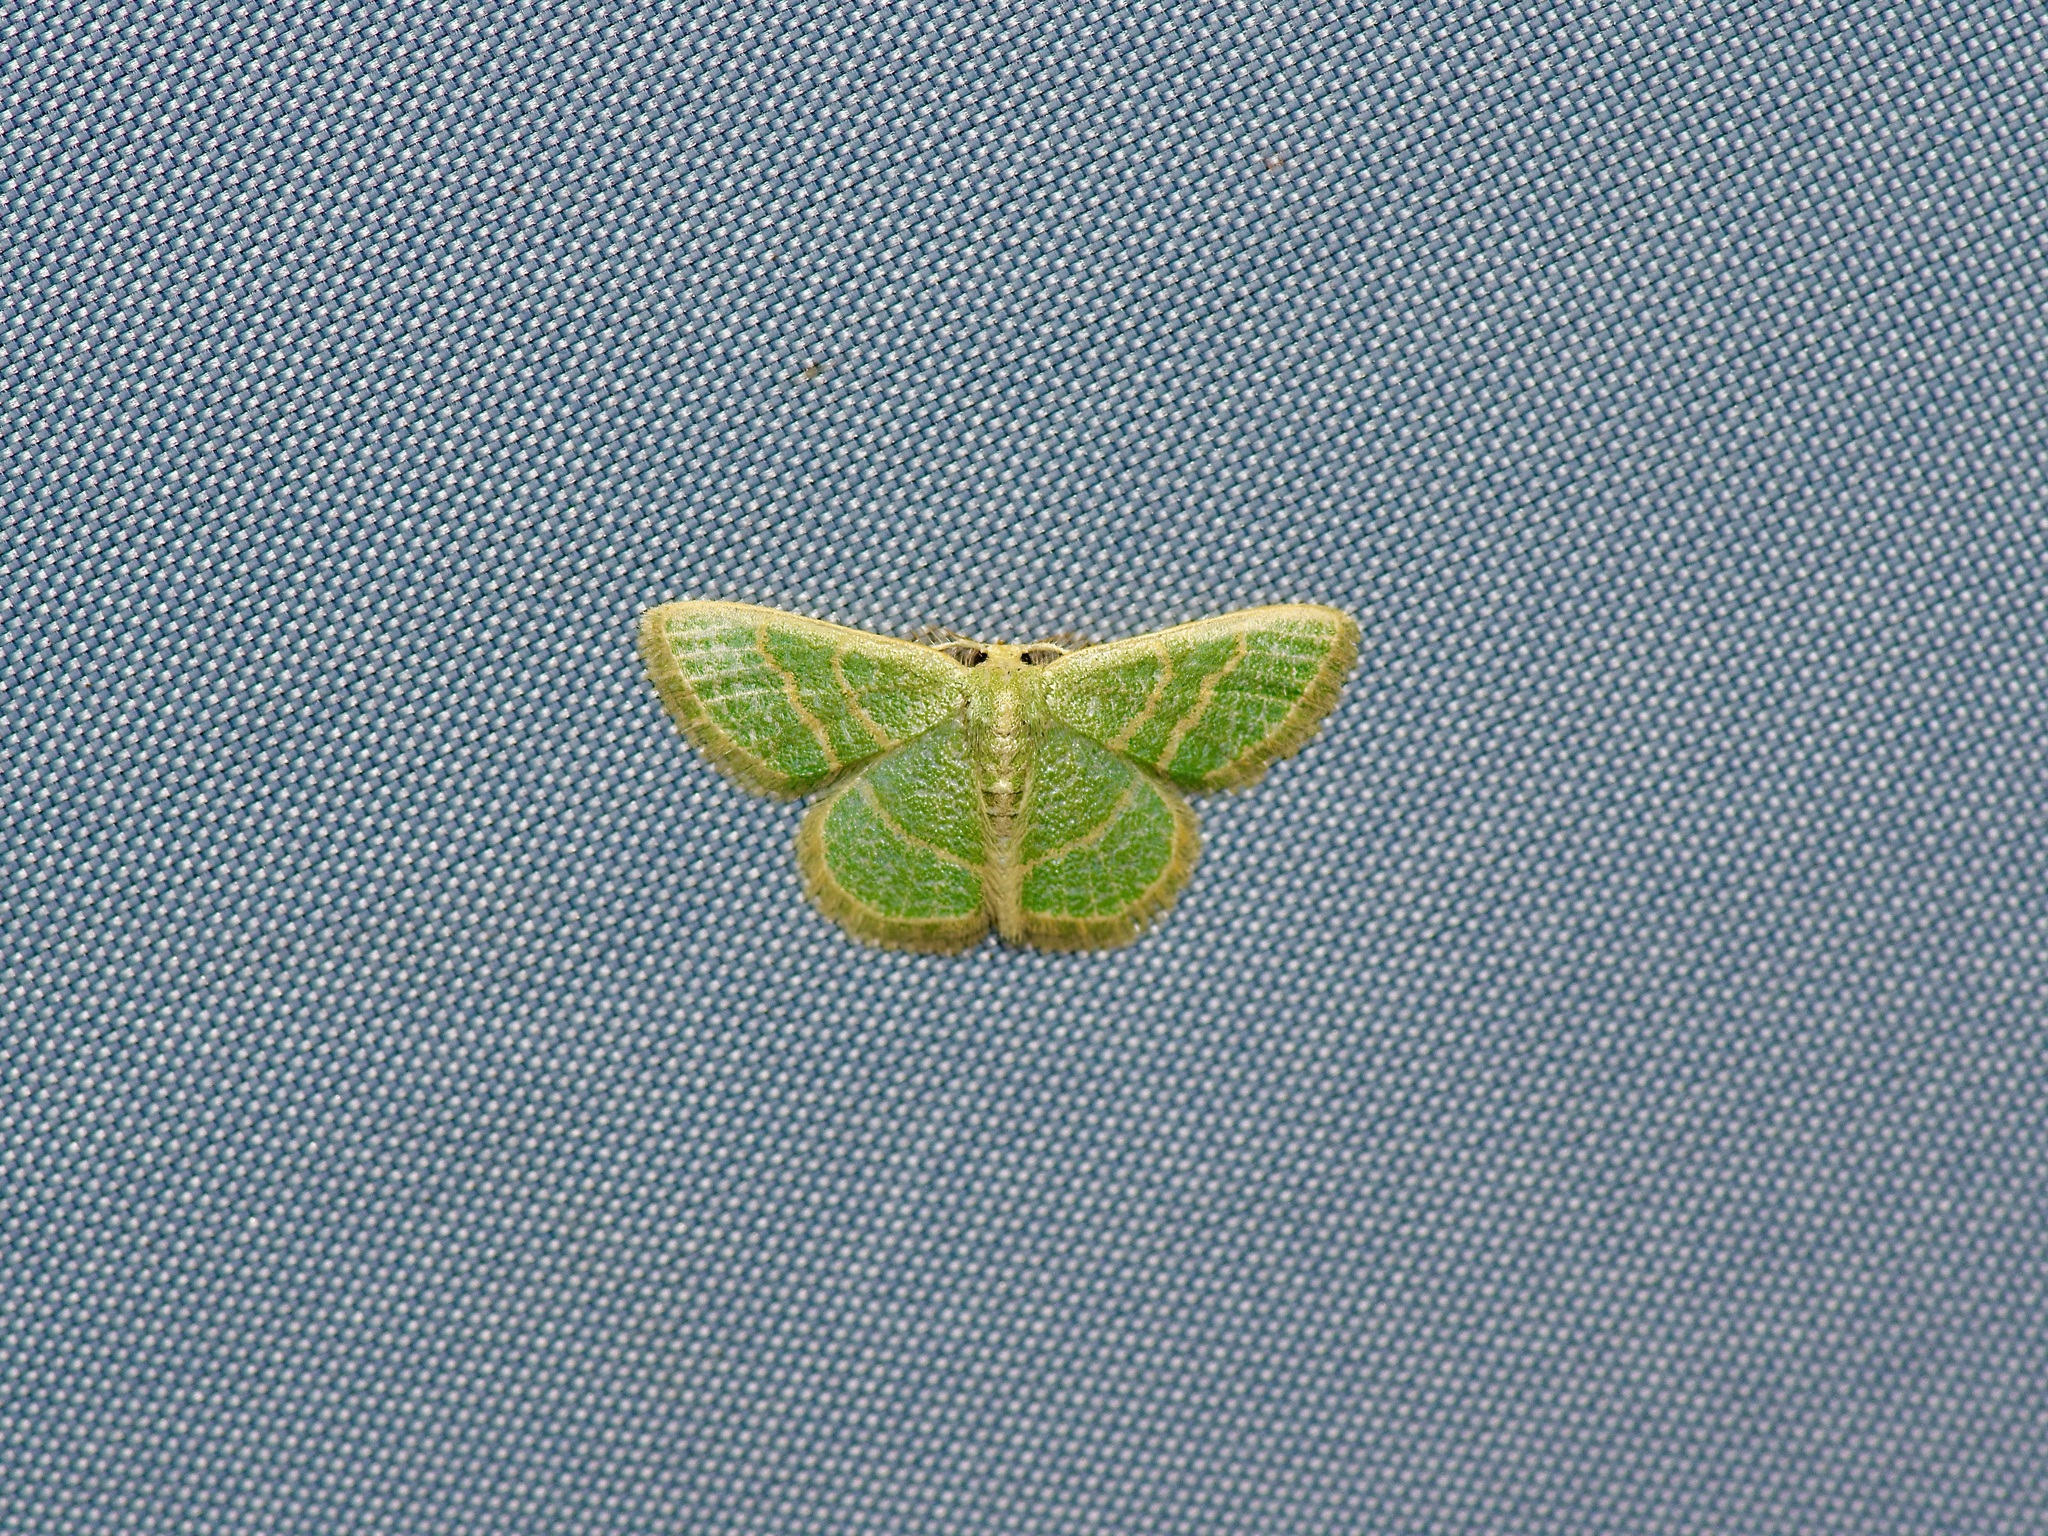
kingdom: Animalia
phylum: Arthropoda
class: Insecta
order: Lepidoptera
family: Geometridae
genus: Chlorochlamys
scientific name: Chlorochlamys chloroleucaria
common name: Blackberry looper
